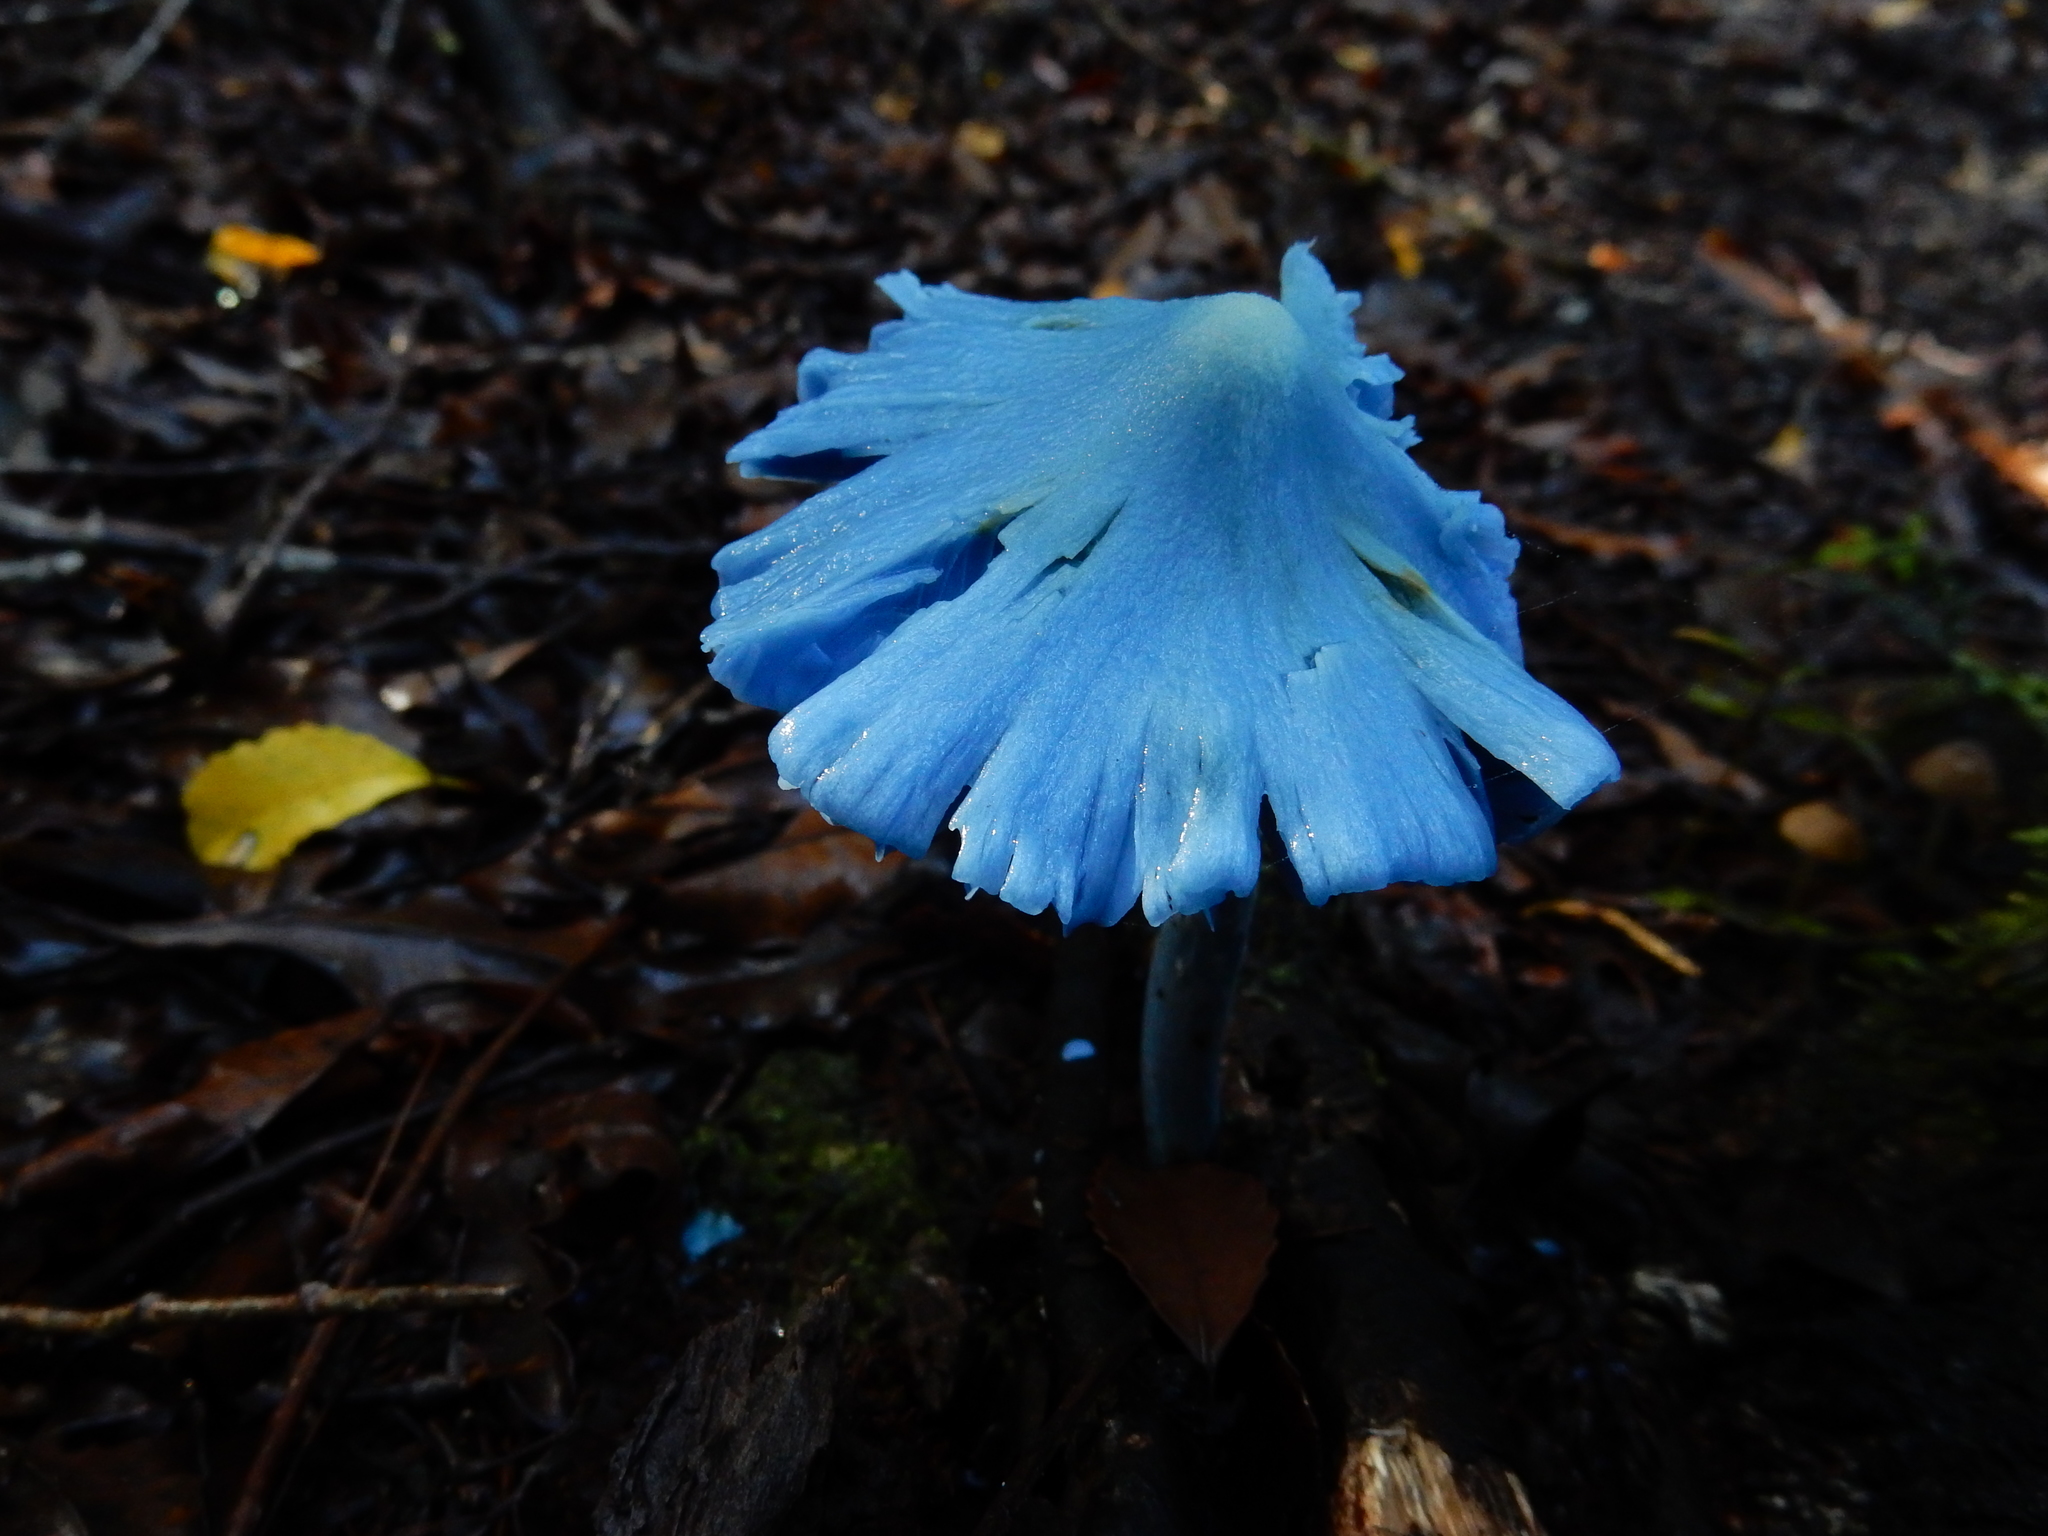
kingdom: Fungi
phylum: Basidiomycota
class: Agaricomycetes
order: Agaricales
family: Entolomataceae
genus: Entoloma
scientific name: Entoloma hochstetteri
